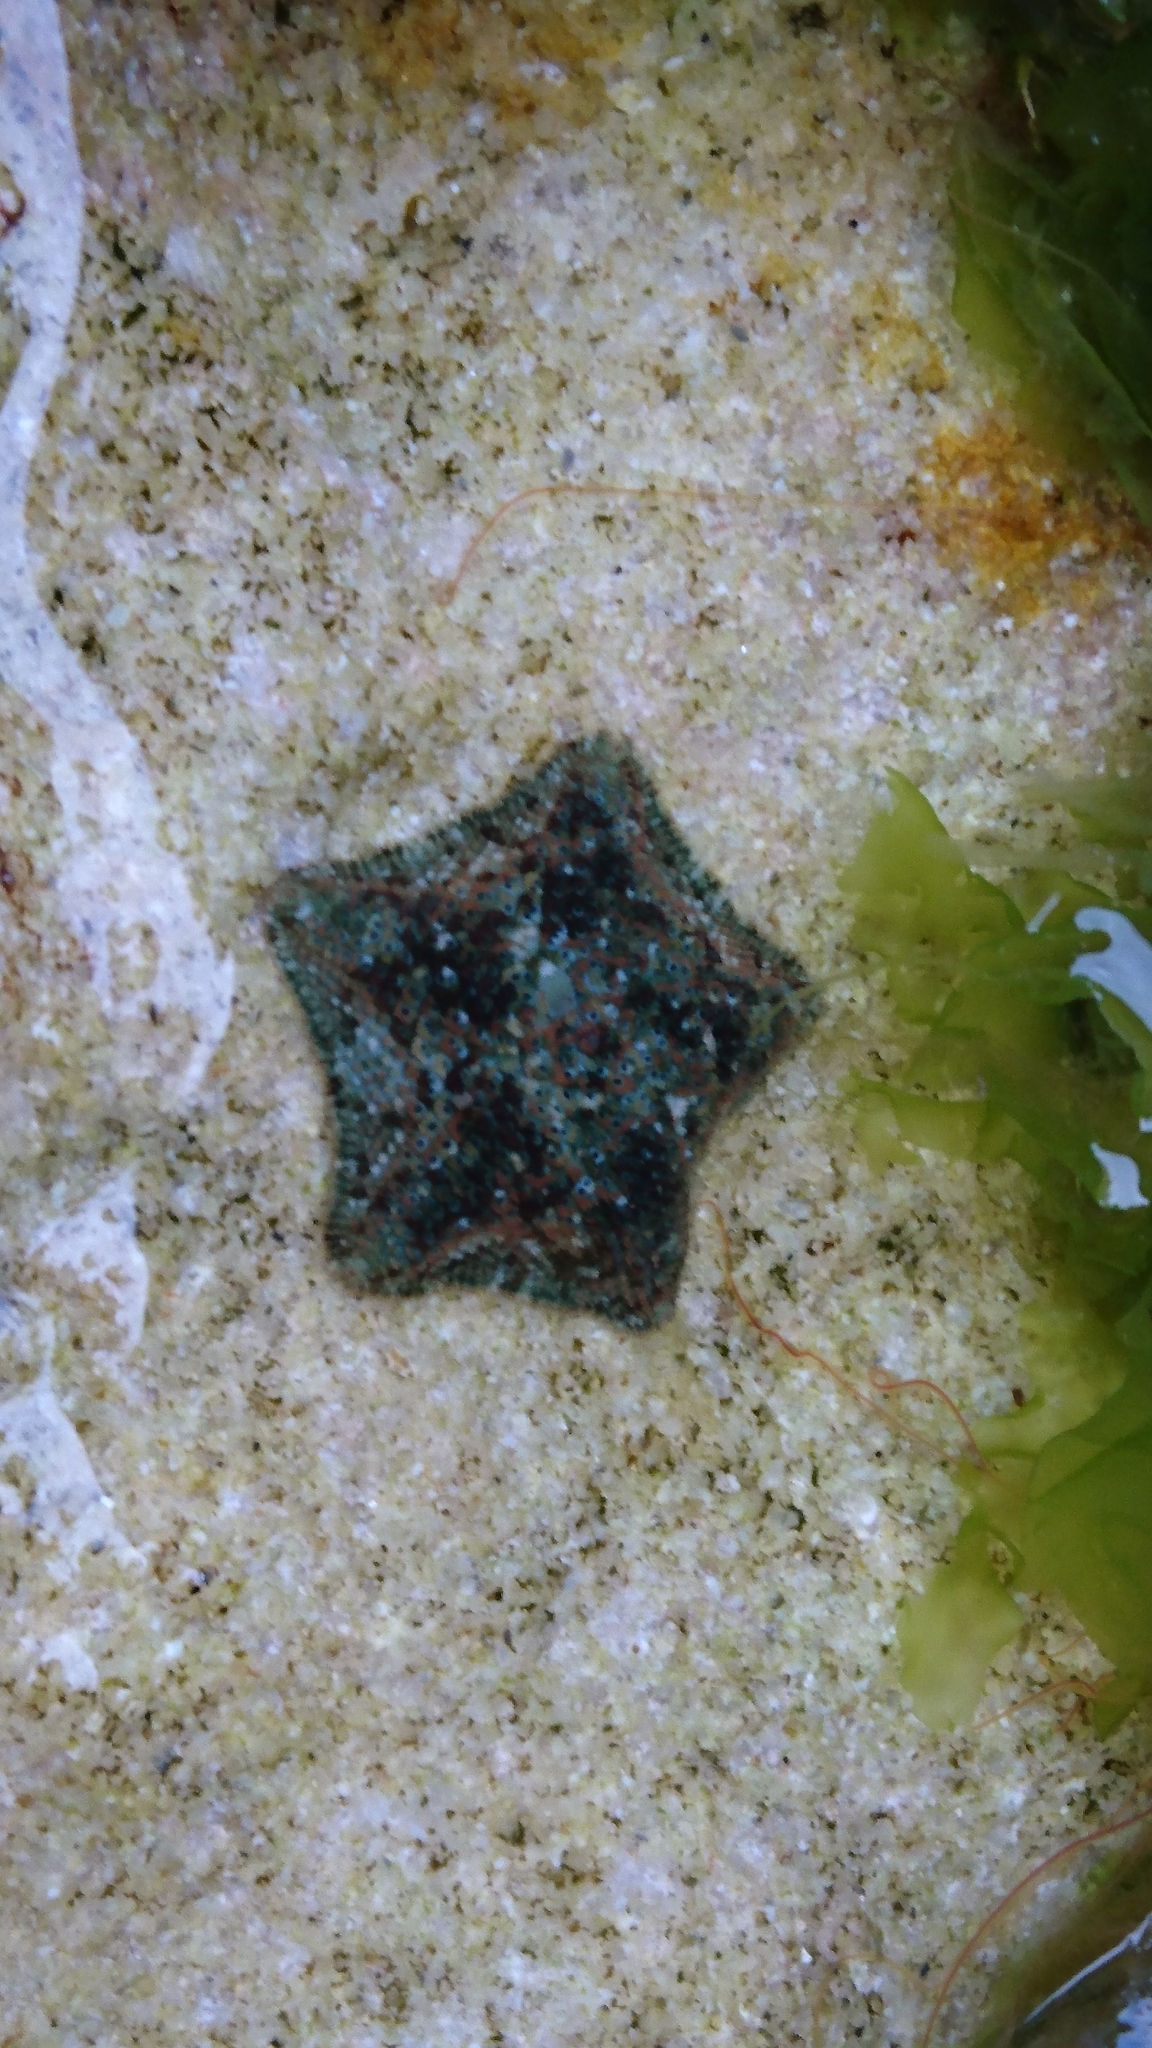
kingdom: Animalia
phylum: Echinodermata
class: Asteroidea
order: Valvatida
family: Asterinidae
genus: Parvulastra
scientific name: Parvulastra exigua
